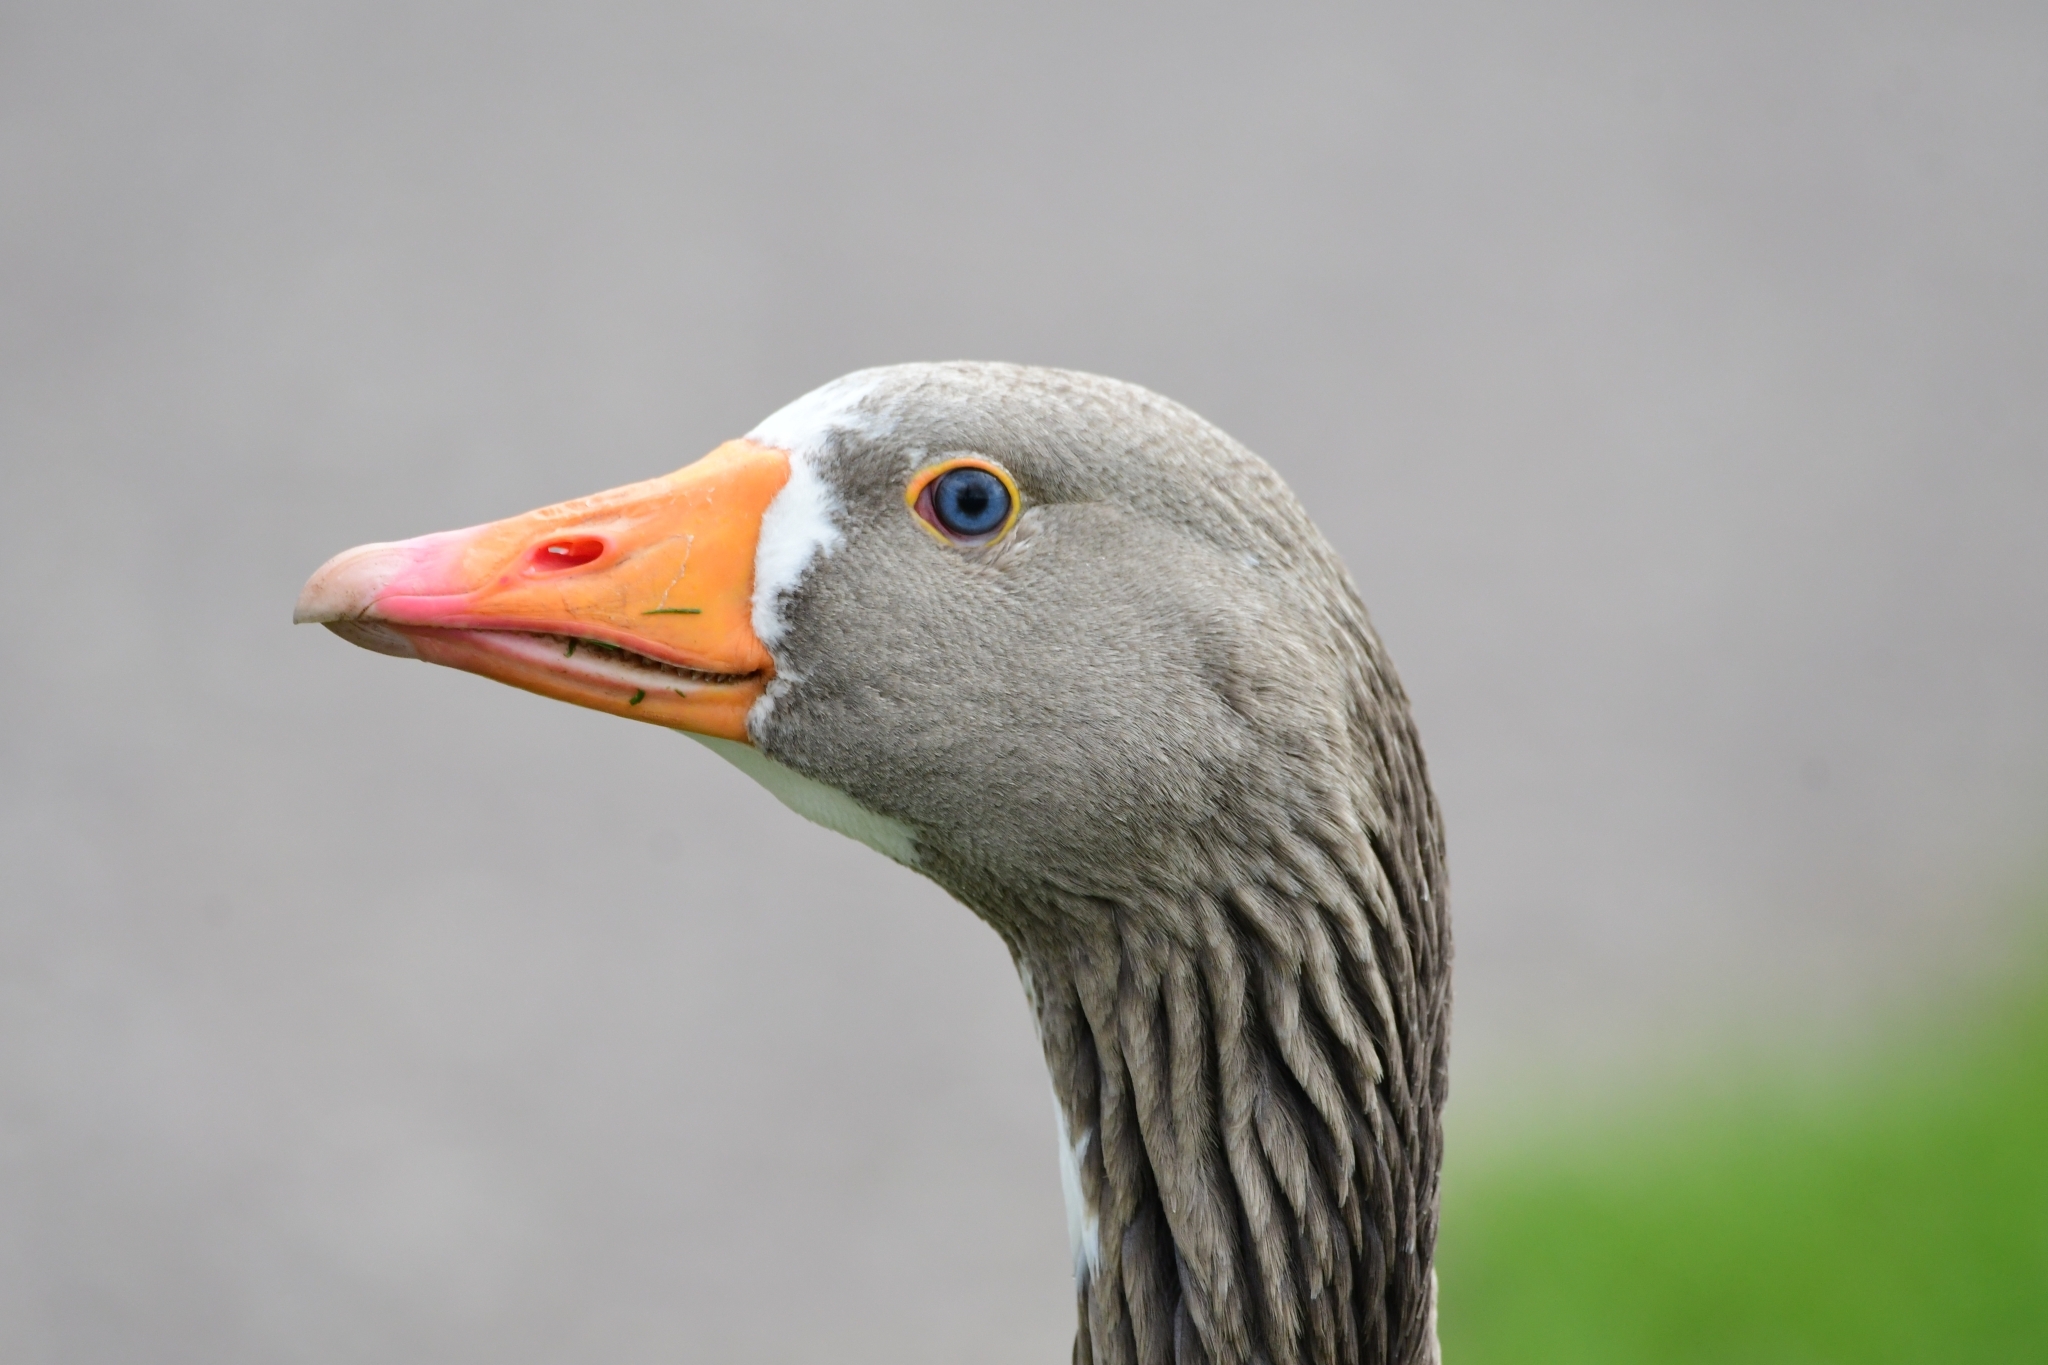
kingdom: Animalia
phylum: Chordata
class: Aves
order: Anseriformes
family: Anatidae
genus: Anser
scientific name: Anser anser
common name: Greylag goose
